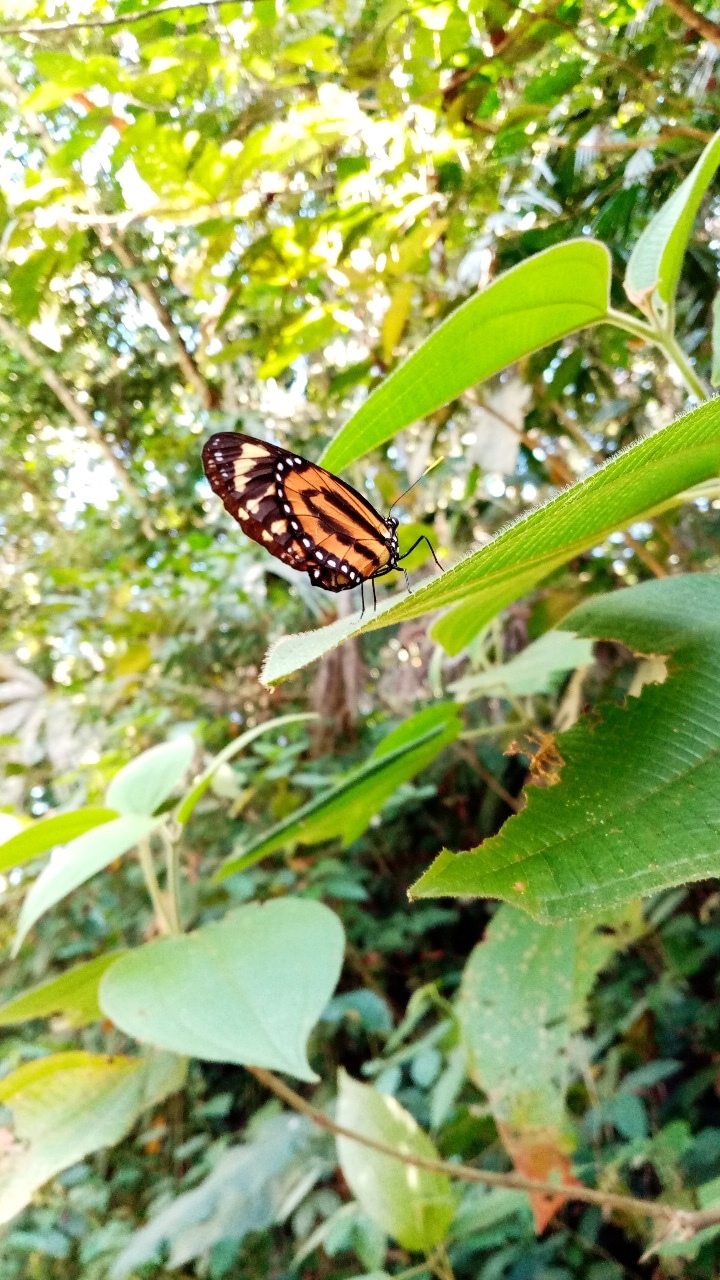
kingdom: Animalia
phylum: Arthropoda
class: Insecta
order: Lepidoptera
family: Nymphalidae
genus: Lycorea
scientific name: Lycorea cleobaea
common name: Tiger mimic-queen
